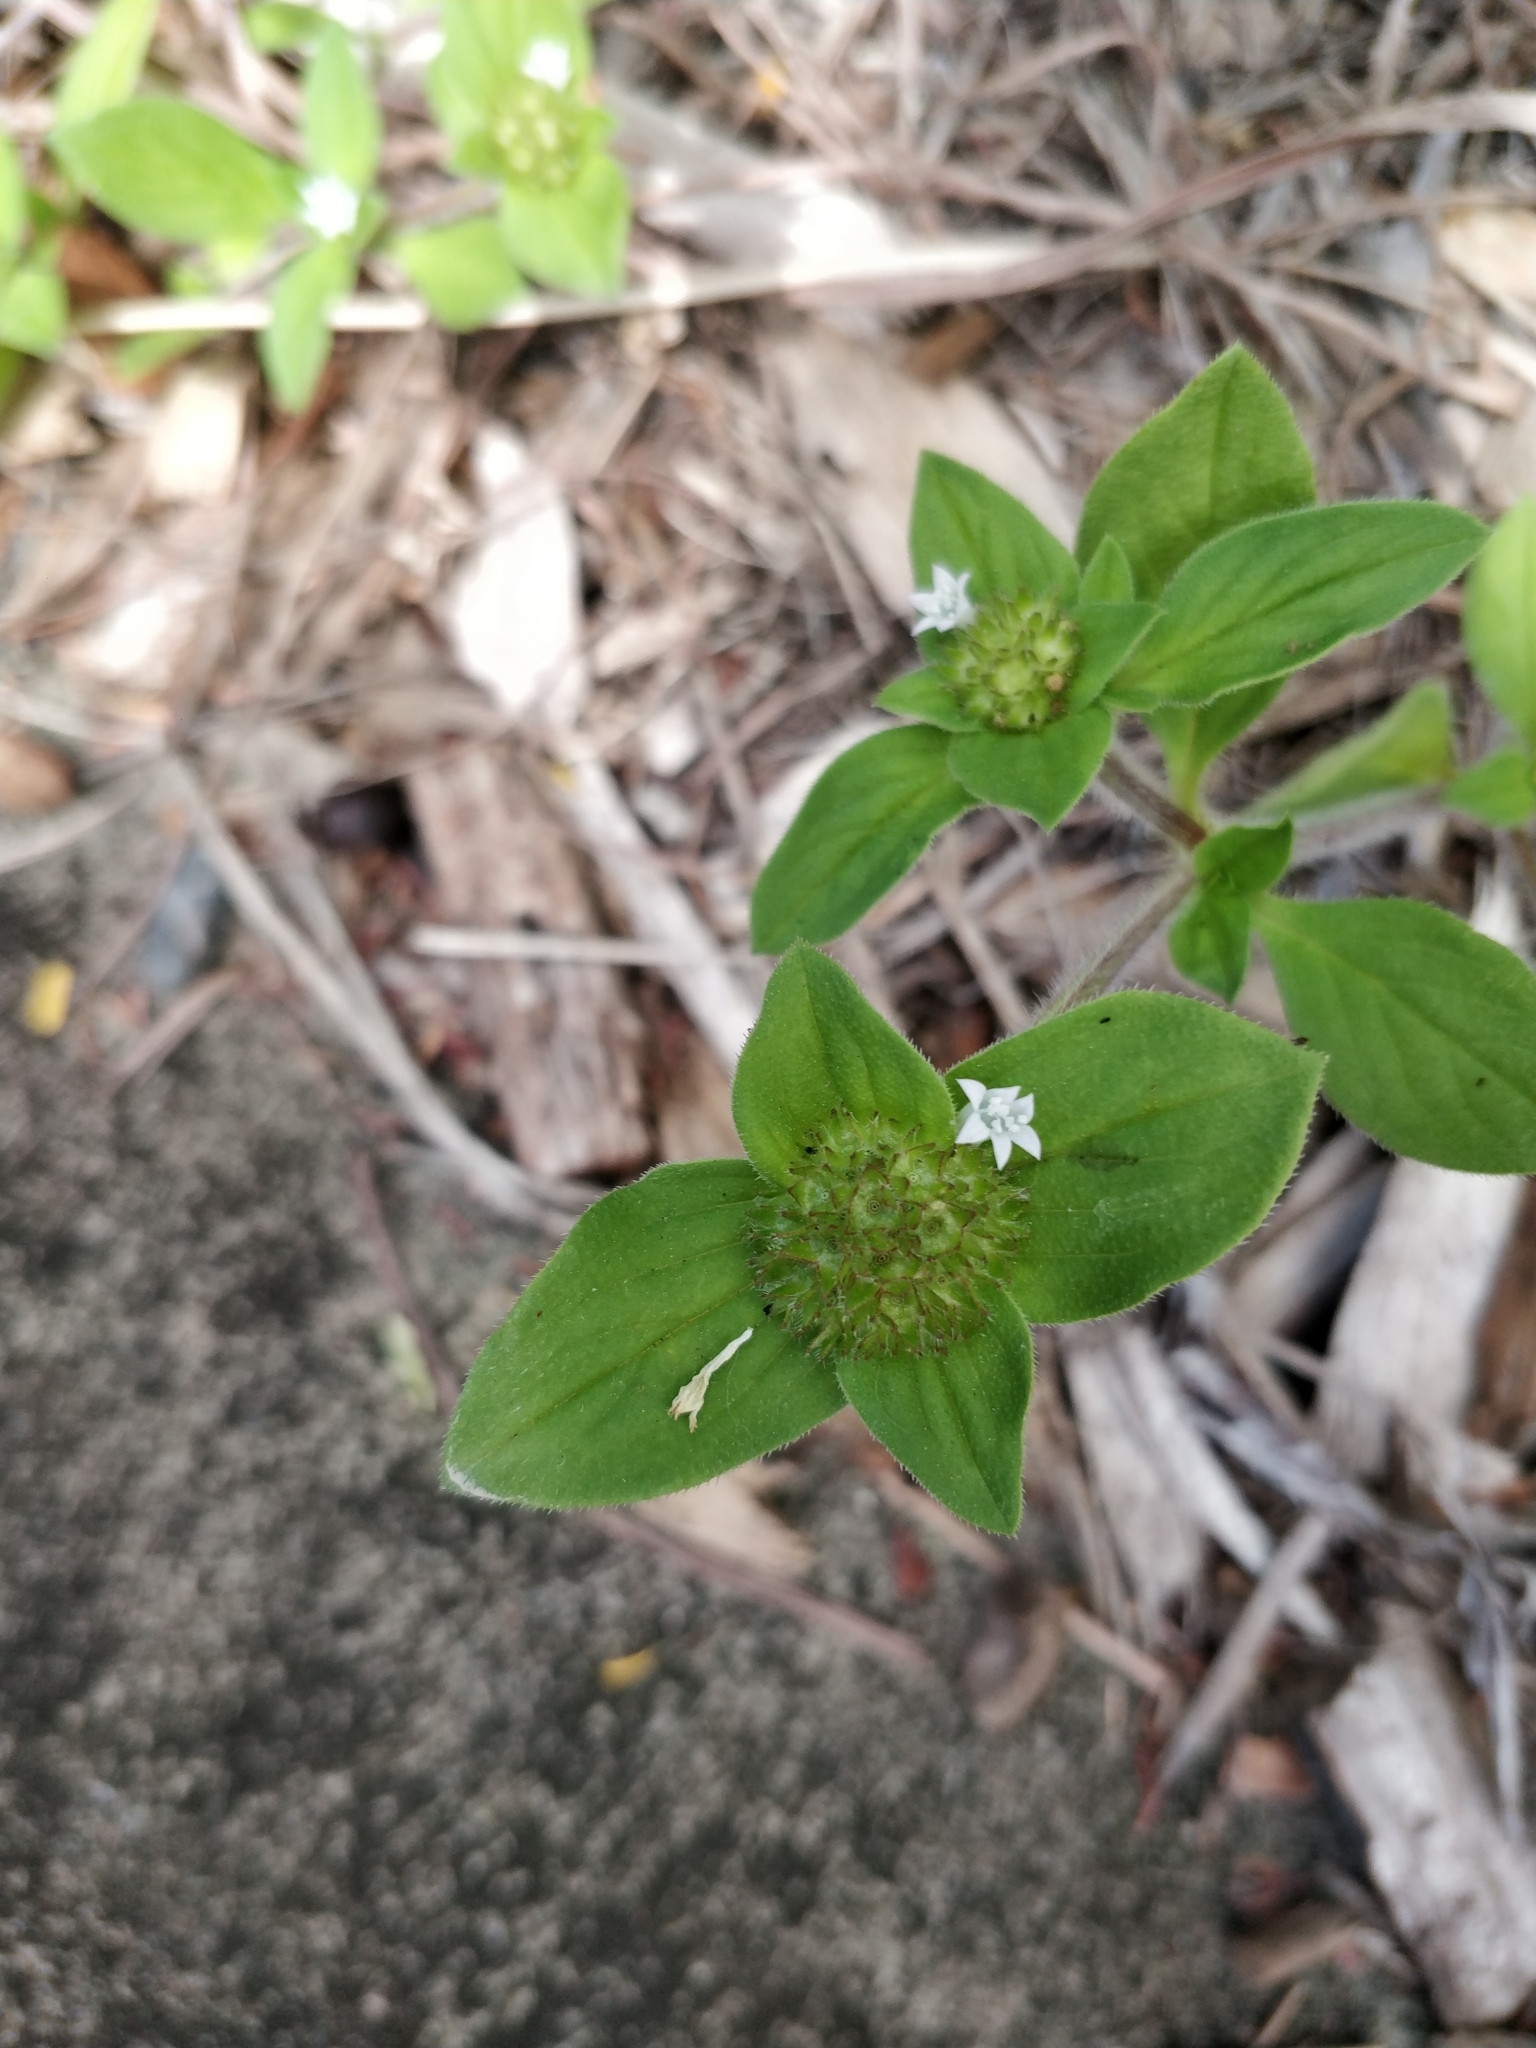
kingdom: Plantae
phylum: Tracheophyta
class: Magnoliopsida
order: Gentianales
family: Rubiaceae
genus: Richardia
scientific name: Richardia brasiliensis
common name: Tropical mexican clover
